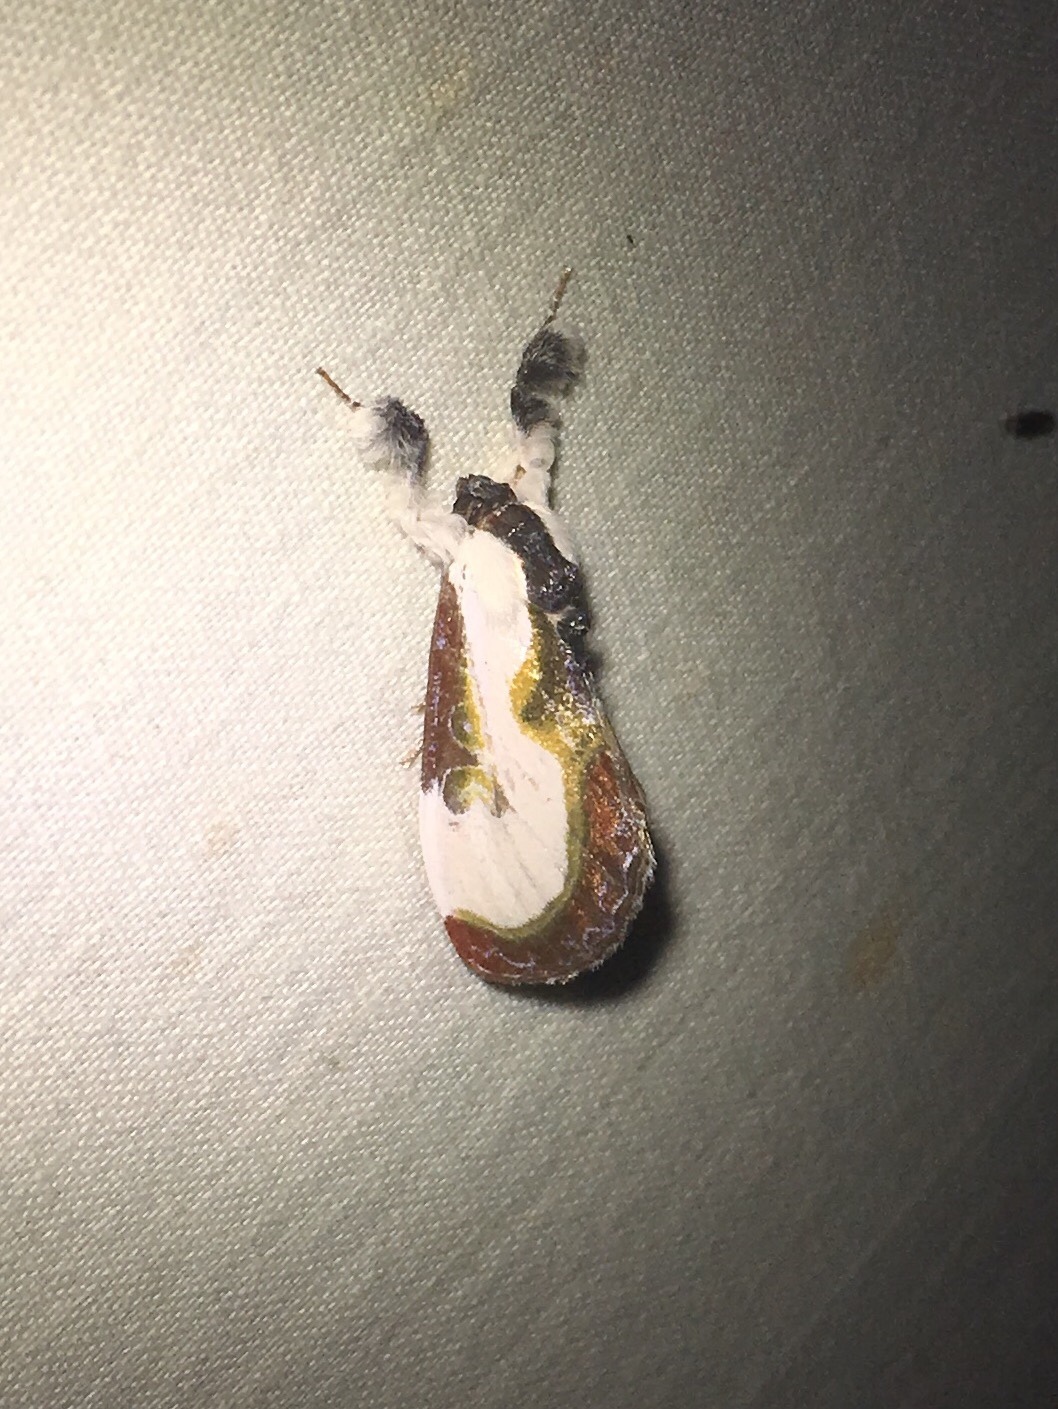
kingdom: Animalia
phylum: Arthropoda
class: Insecta
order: Lepidoptera
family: Noctuidae
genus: Eudryas
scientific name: Eudryas grata
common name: Beautiful wood-nymph
